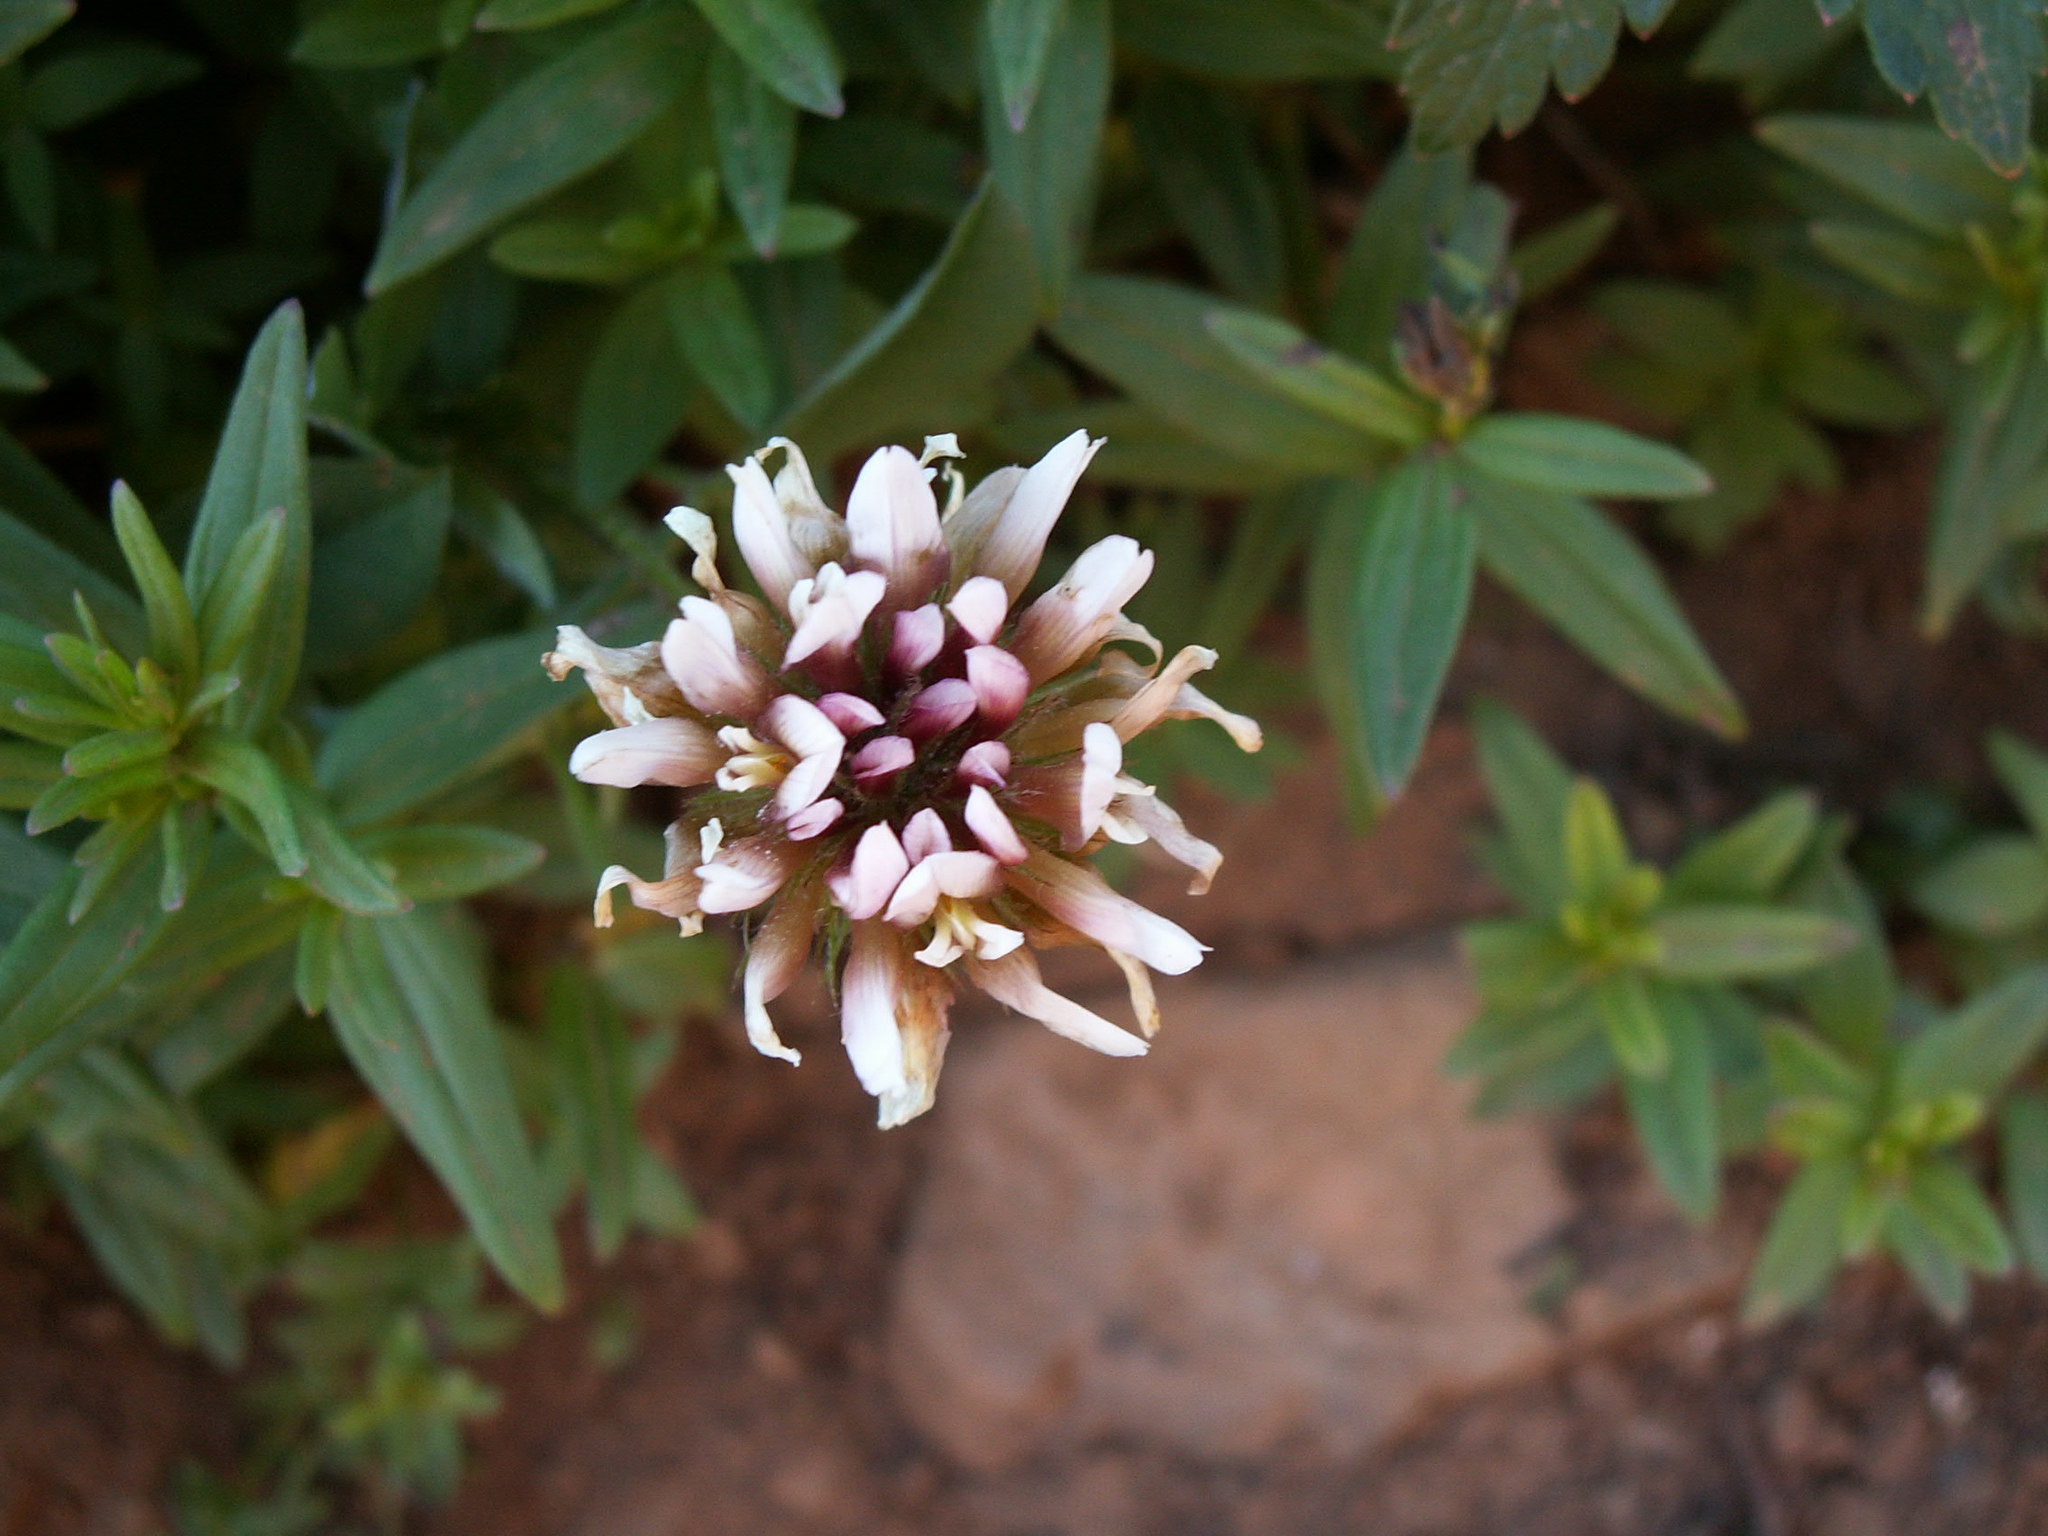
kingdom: Plantae
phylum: Tracheophyta
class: Magnoliopsida
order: Fabales
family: Fabaceae
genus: Trifolium
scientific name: Trifolium longipes
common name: Long-stalk clover
